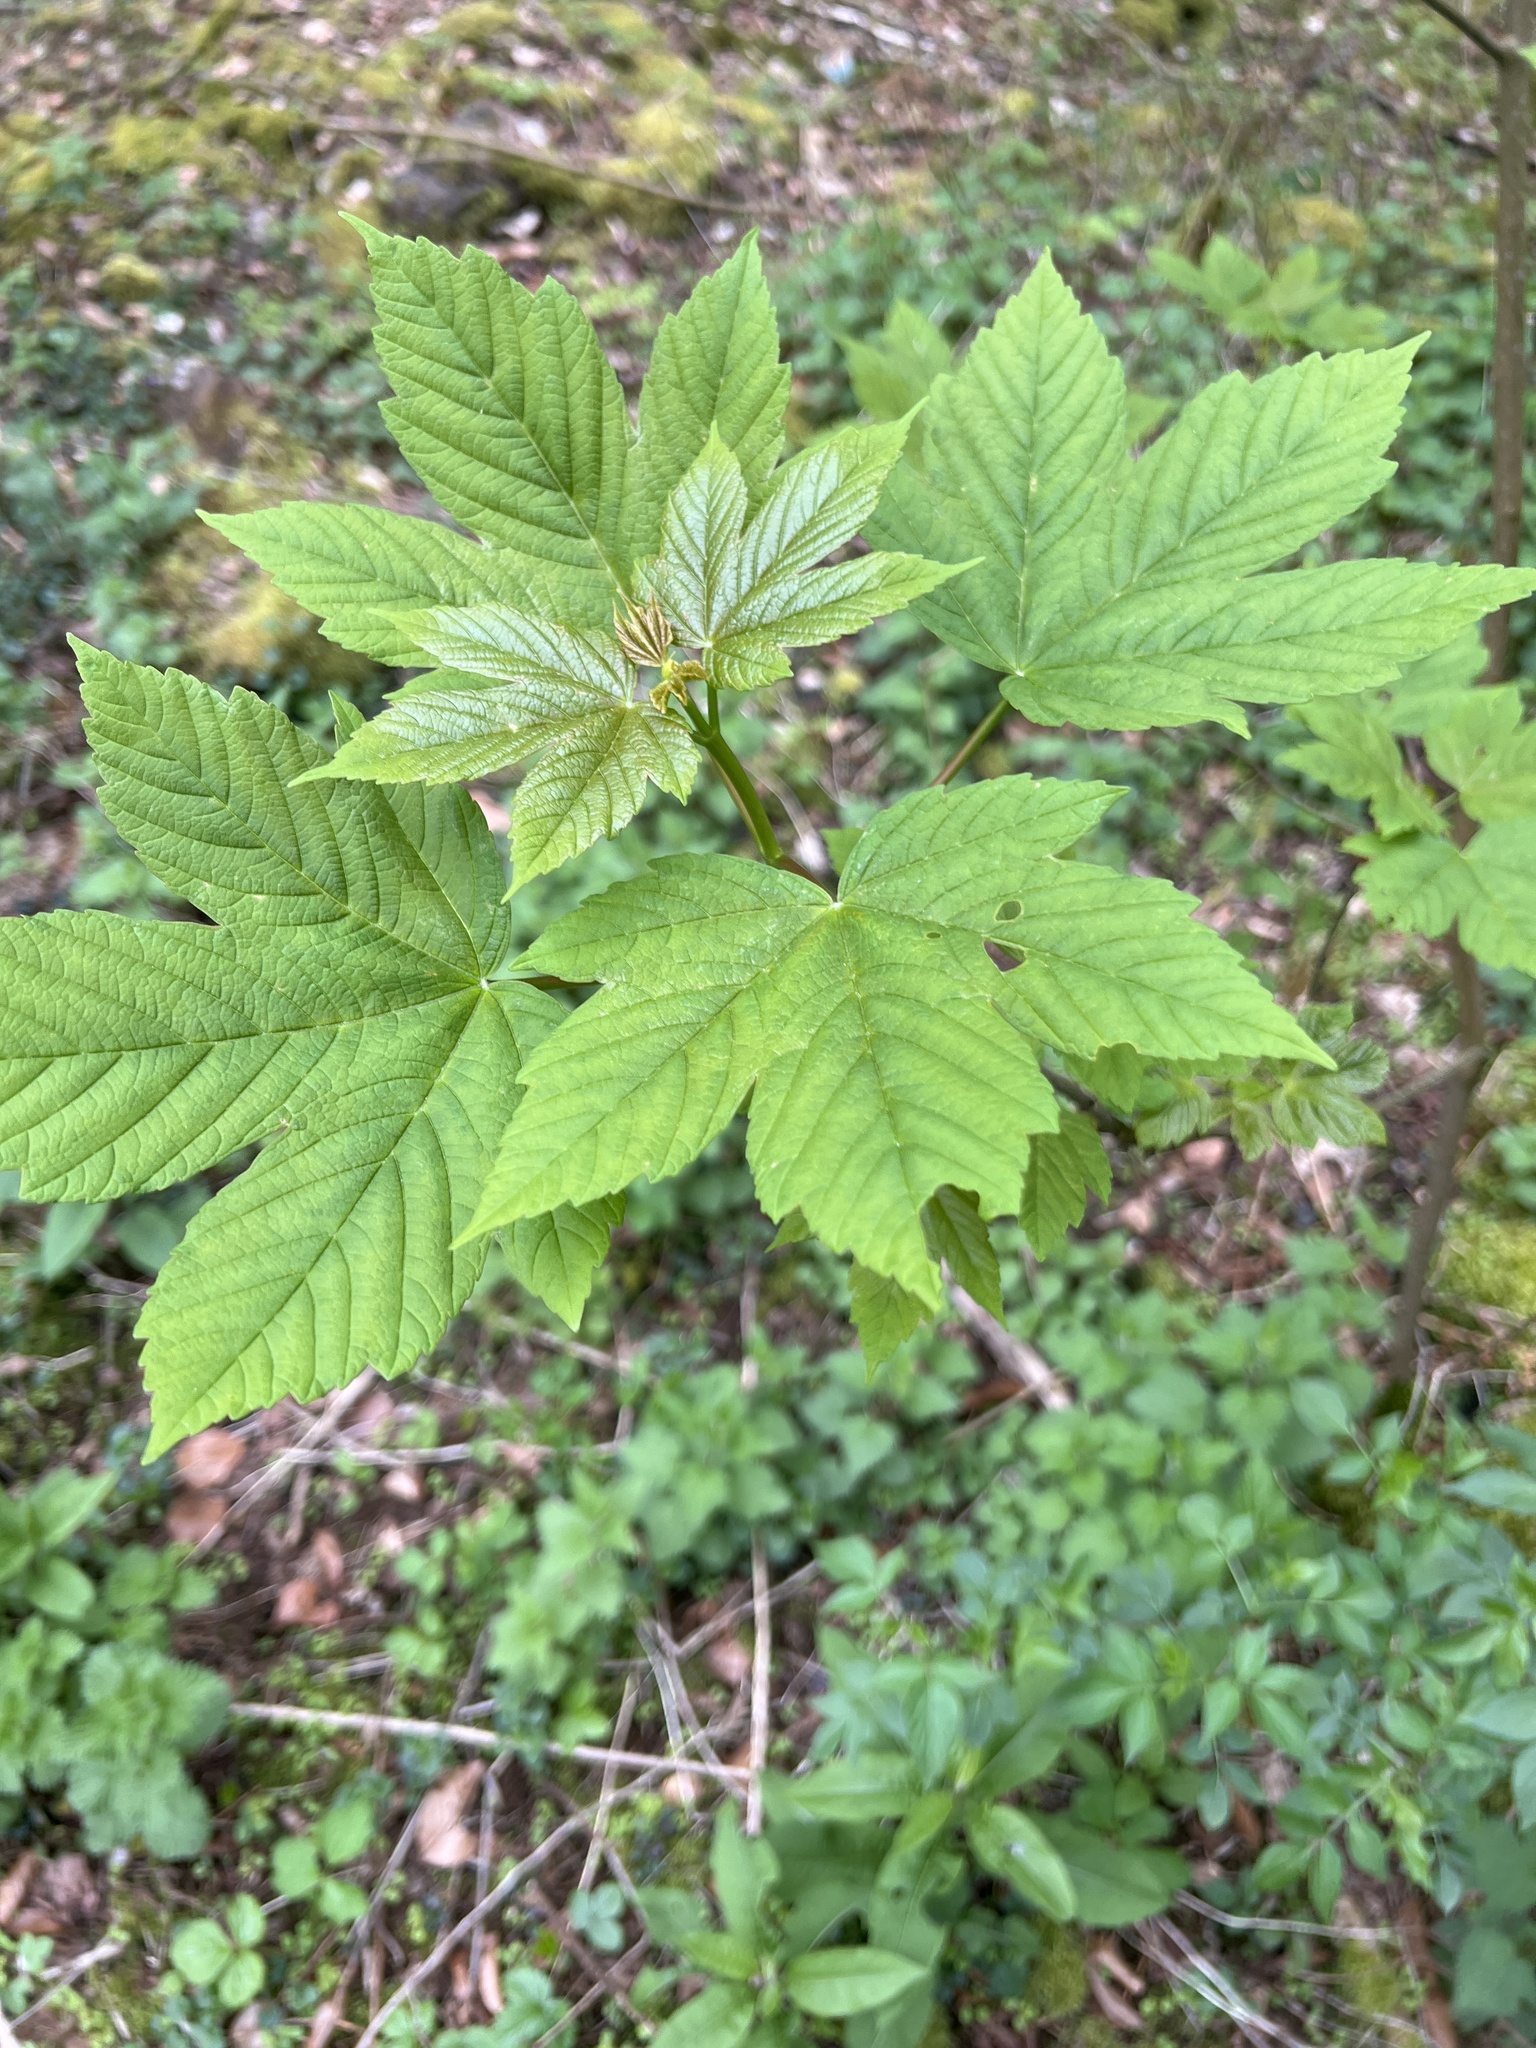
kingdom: Plantae
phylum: Tracheophyta
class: Magnoliopsida
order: Sapindales
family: Sapindaceae
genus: Acer
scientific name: Acer pseudoplatanus
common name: Sycamore
